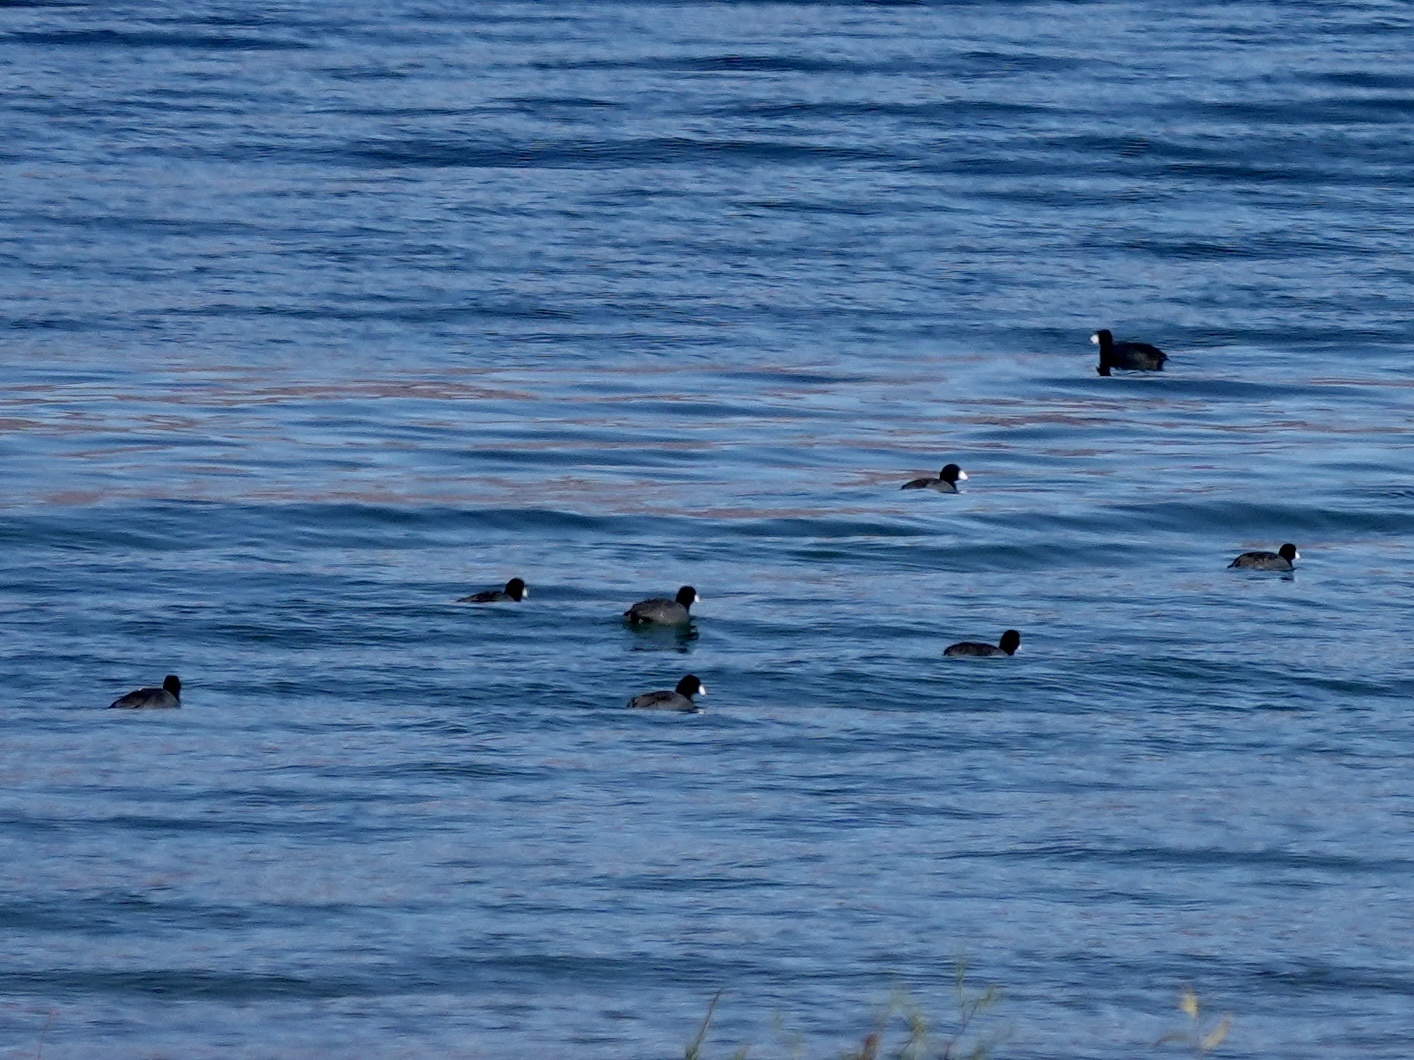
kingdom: Animalia
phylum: Chordata
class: Aves
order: Gruiformes
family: Rallidae
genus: Fulica
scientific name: Fulica americana
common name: American coot
